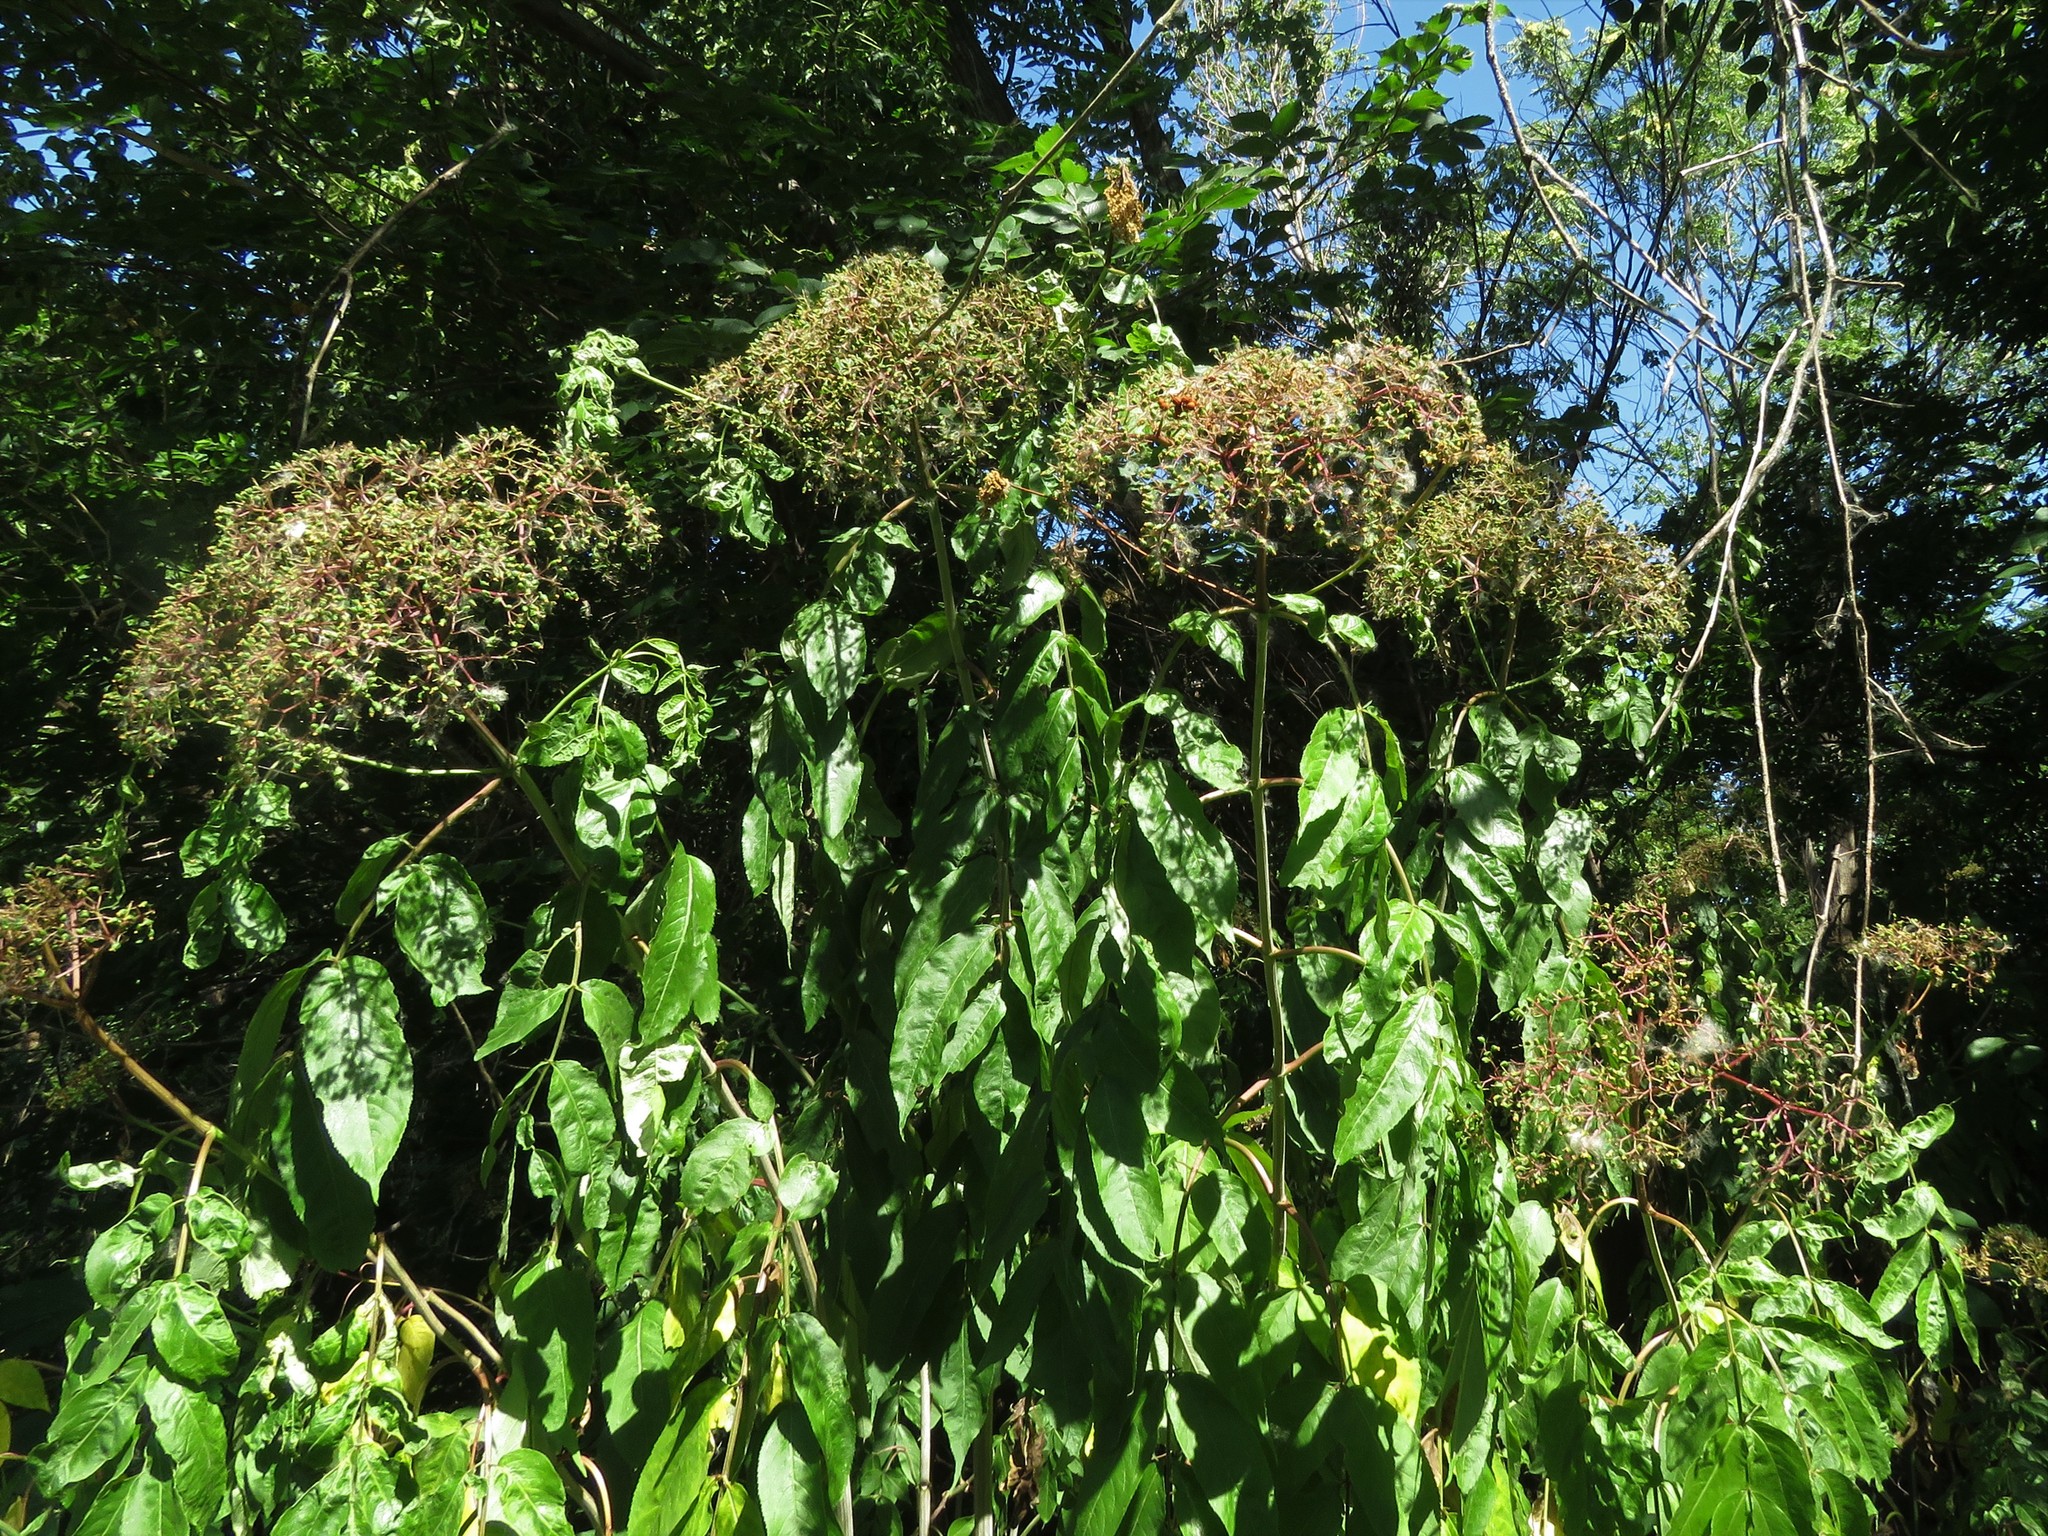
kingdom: Plantae
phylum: Tracheophyta
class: Magnoliopsida
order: Dipsacales
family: Viburnaceae
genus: Sambucus
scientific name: Sambucus canadensis
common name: American elder
